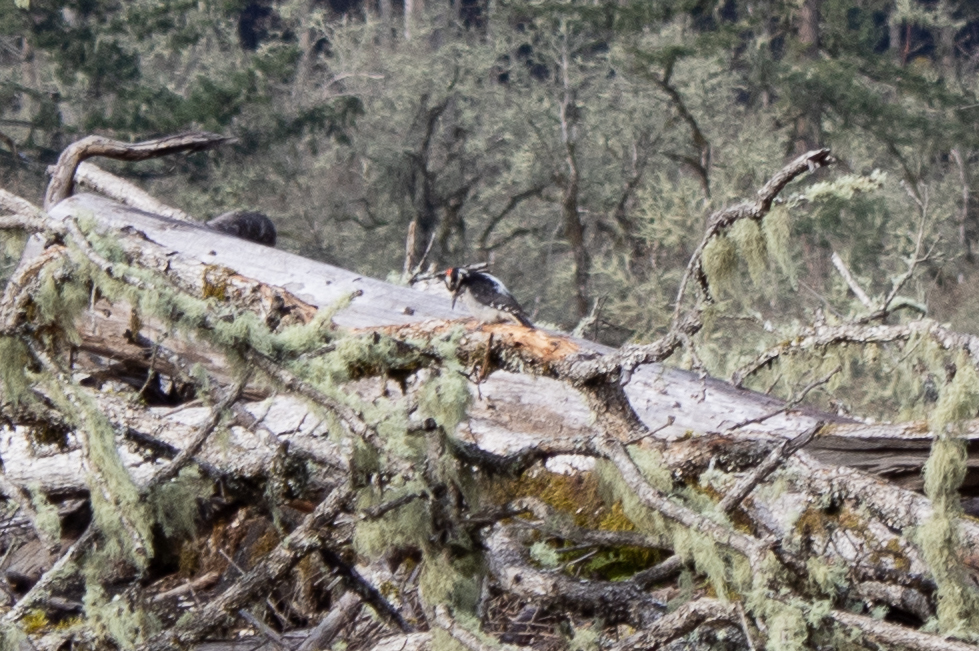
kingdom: Animalia
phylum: Chordata
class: Aves
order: Piciformes
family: Picidae
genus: Leuconotopicus
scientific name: Leuconotopicus villosus
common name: Hairy woodpecker
